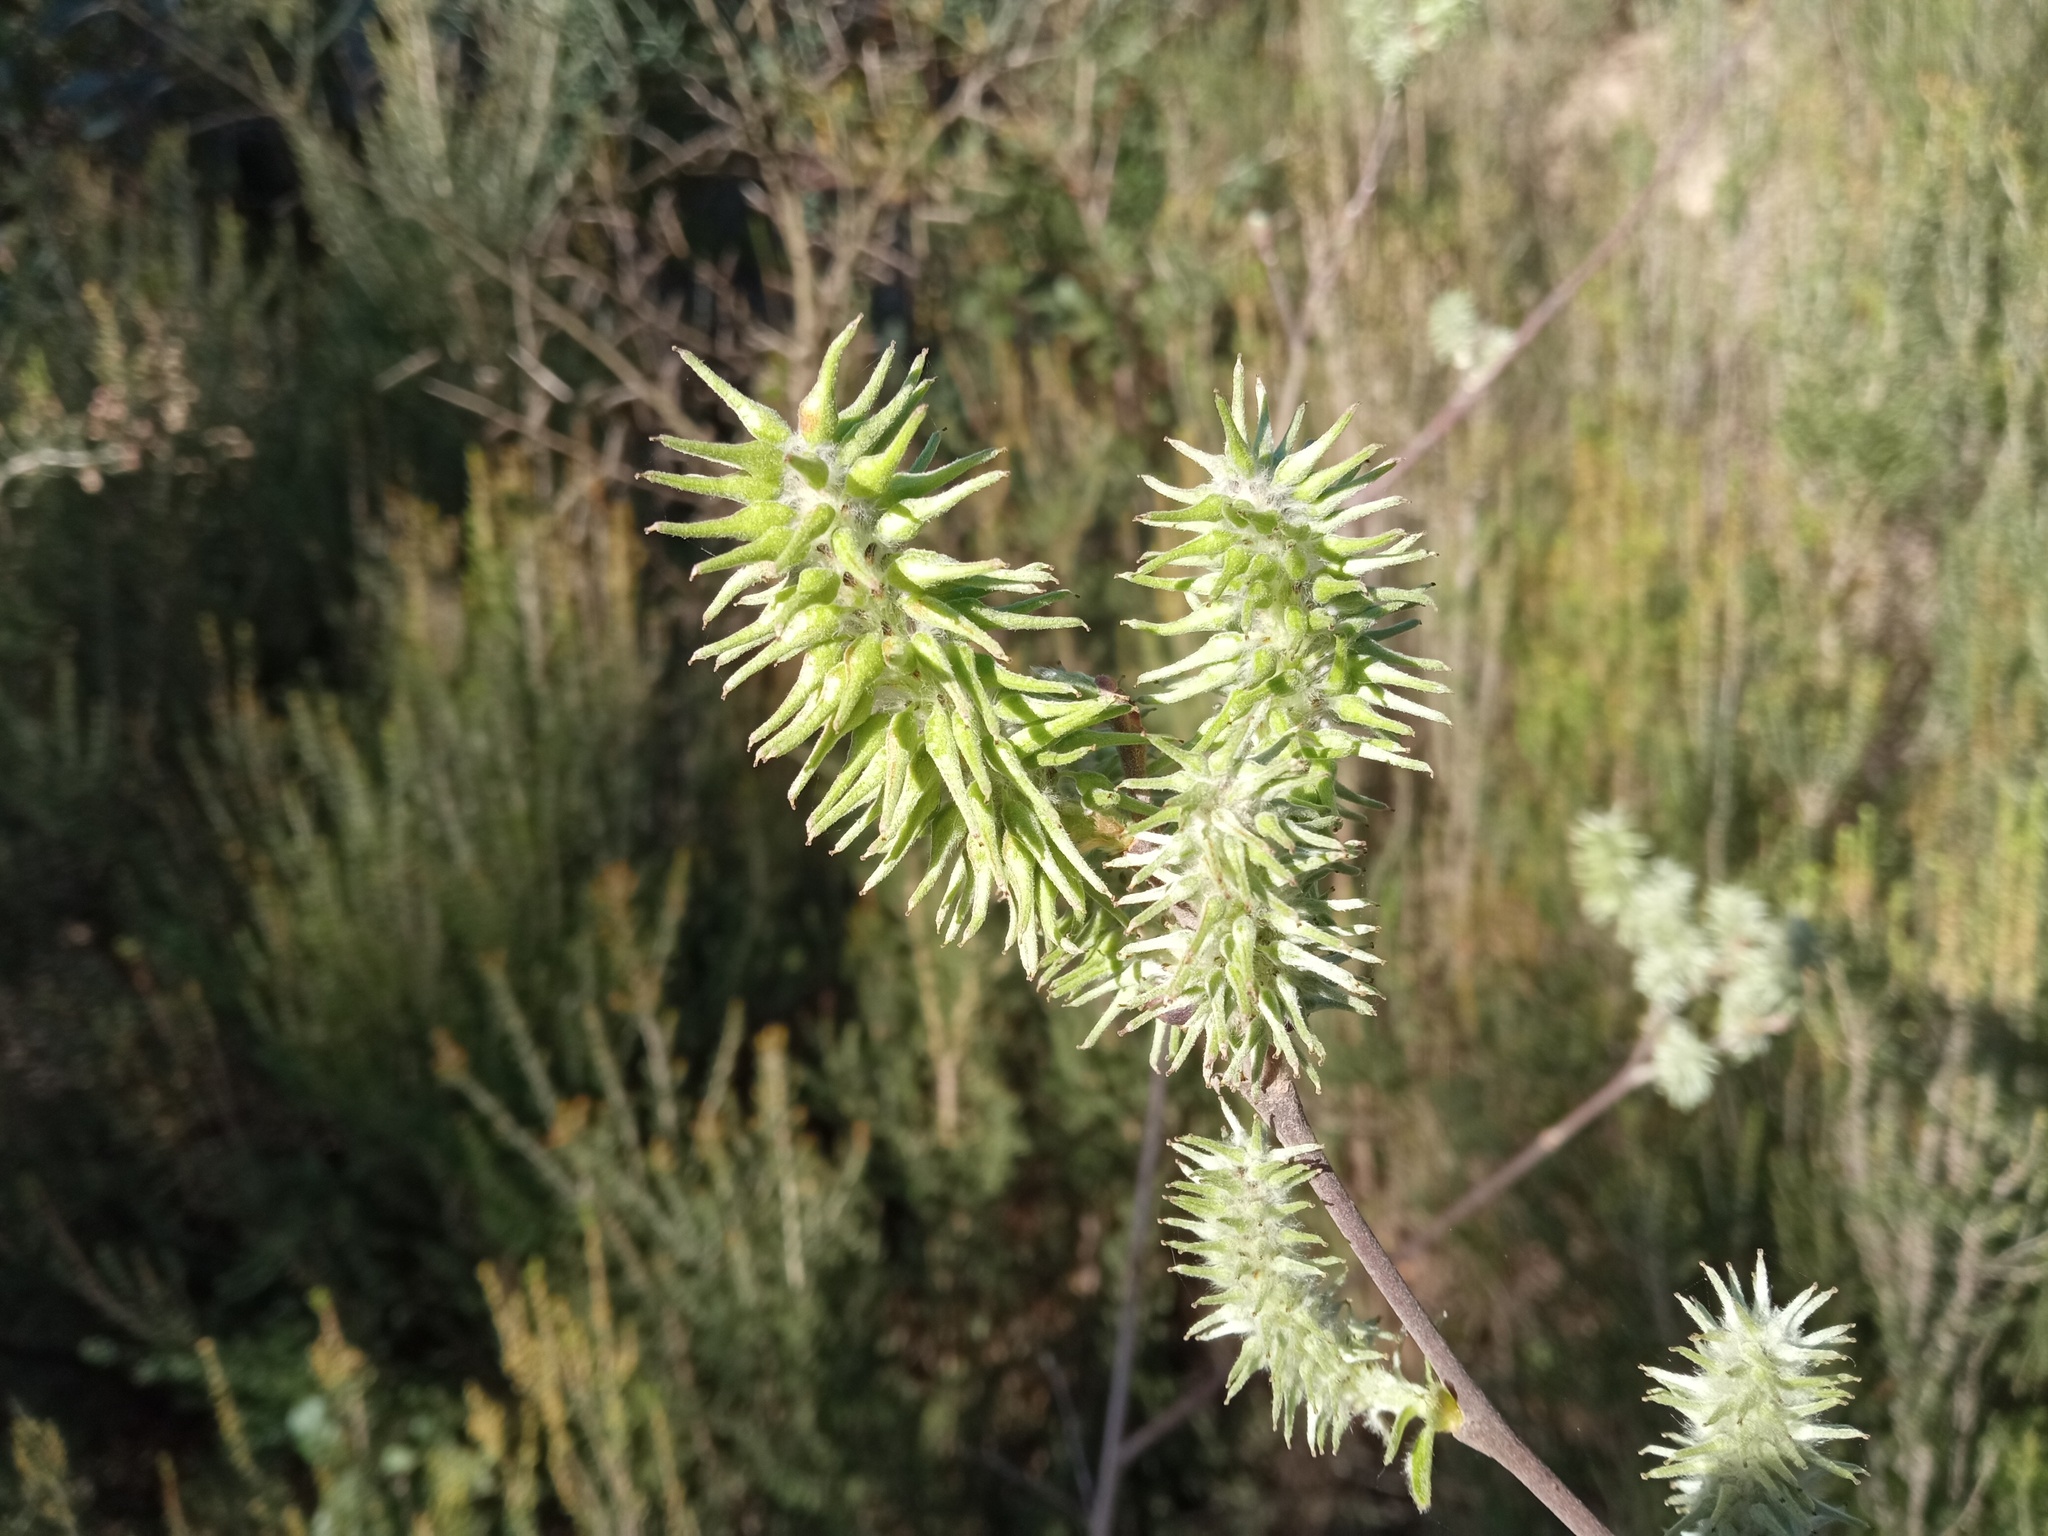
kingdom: Plantae
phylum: Tracheophyta
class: Magnoliopsida
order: Malpighiales
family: Salicaceae
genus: Salix
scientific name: Salix atrocinerea
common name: Rusty willow
